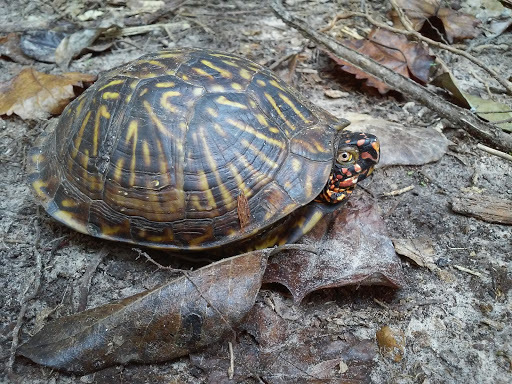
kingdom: Animalia
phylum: Chordata
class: Testudines
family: Emydidae
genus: Terrapene
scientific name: Terrapene carolina
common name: Common box turtle
